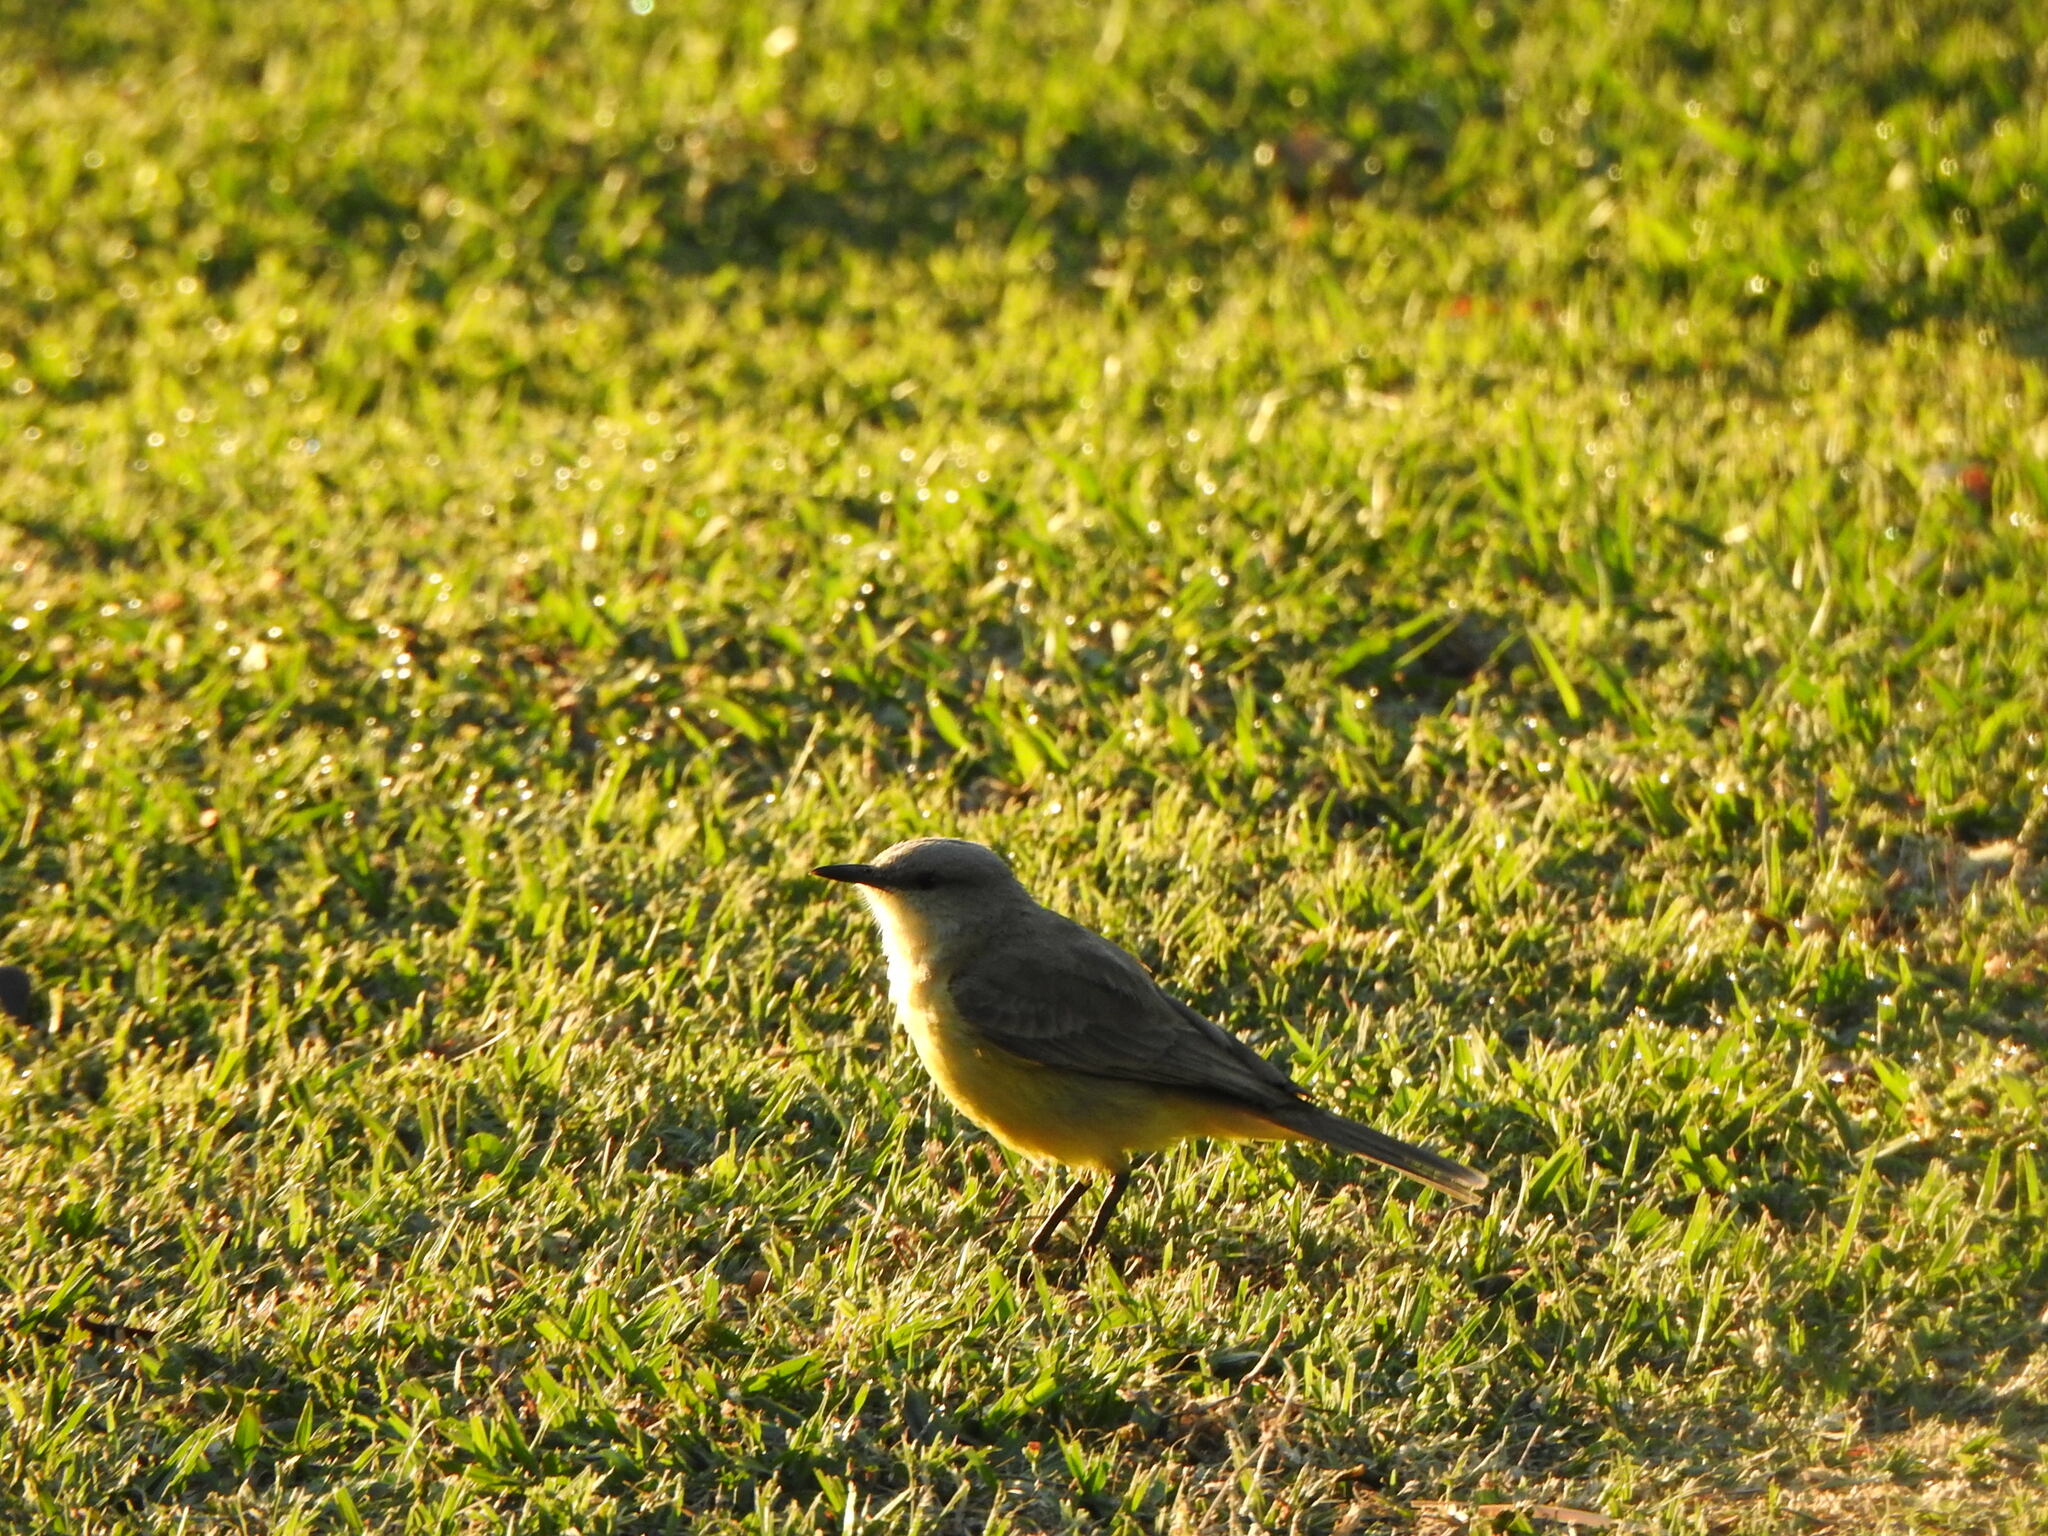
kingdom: Animalia
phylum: Chordata
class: Aves
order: Passeriformes
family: Tyrannidae
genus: Machetornis
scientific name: Machetornis rixosa
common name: Cattle tyrant
